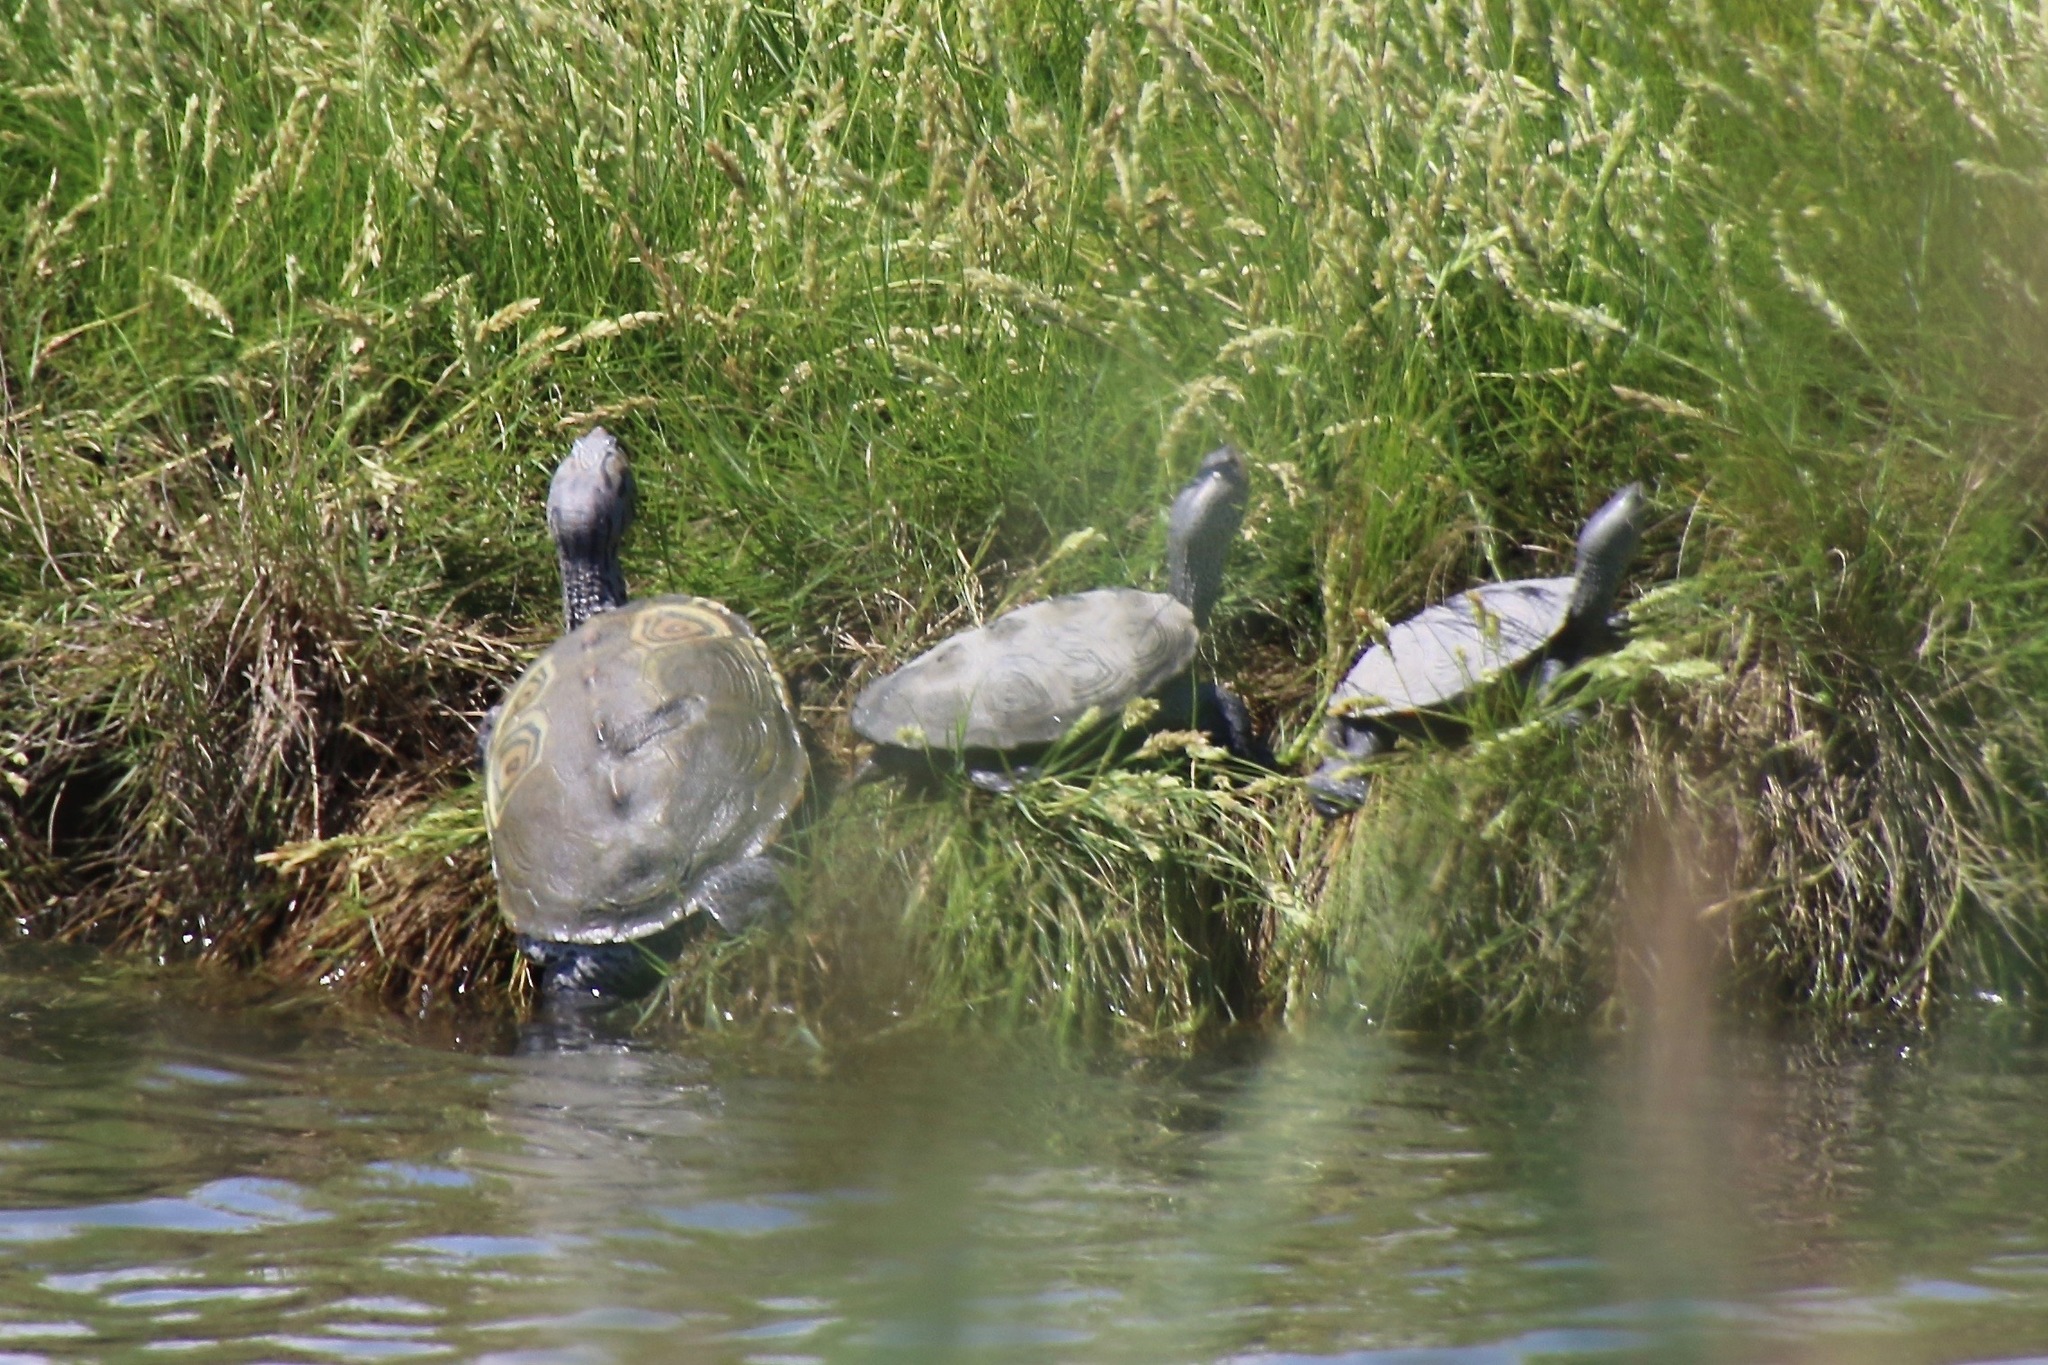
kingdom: Animalia
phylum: Chordata
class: Testudines
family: Emydidae
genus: Malaclemys
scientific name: Malaclemys terrapin
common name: Diamondback terrapin
